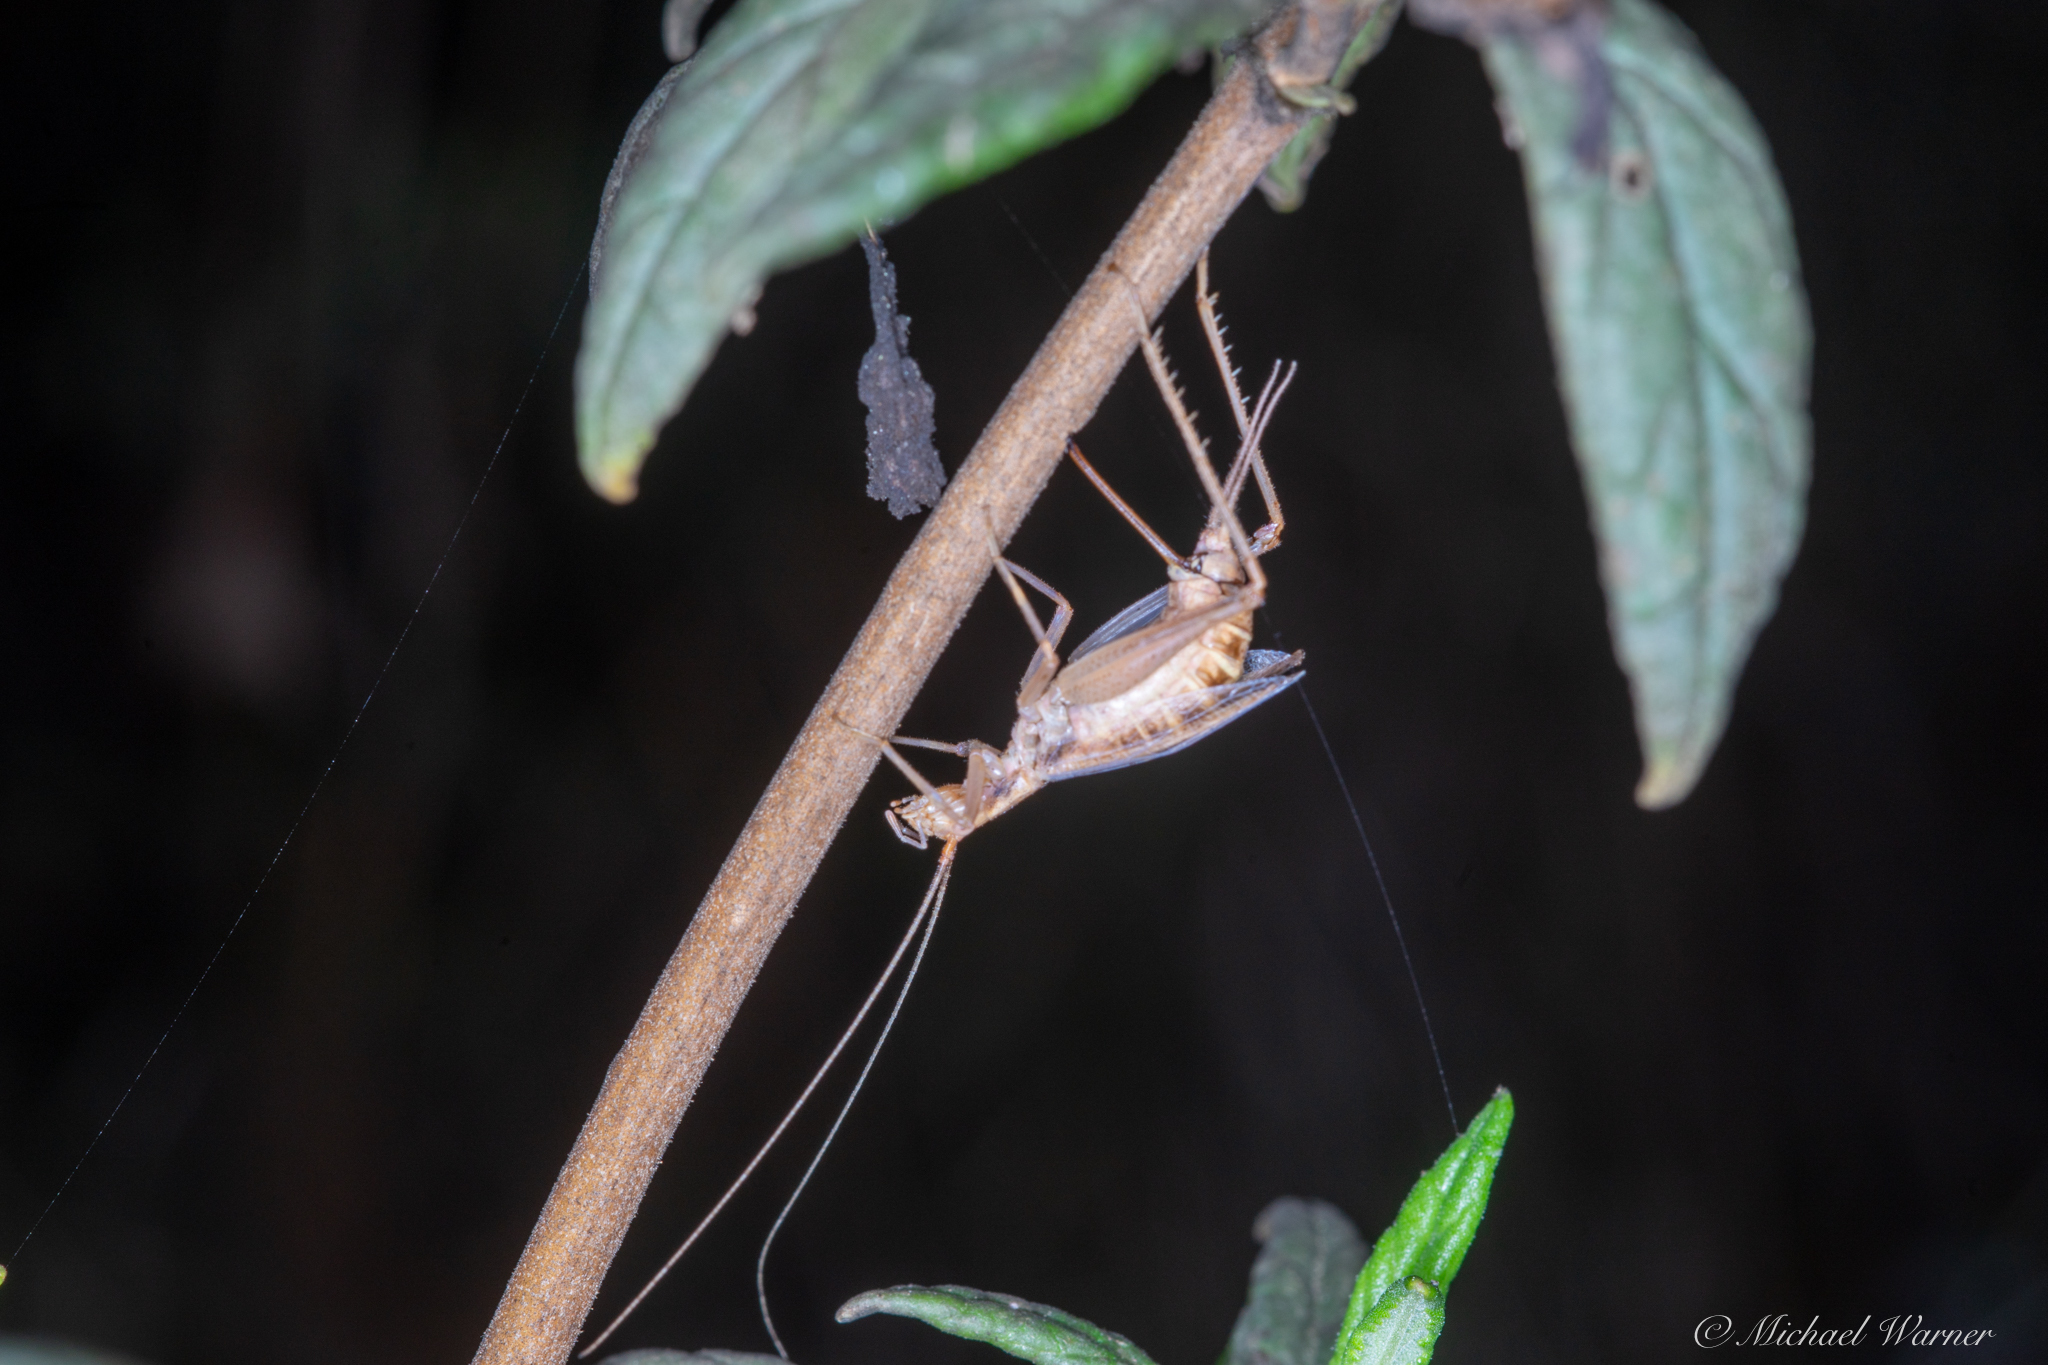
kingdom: Animalia
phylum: Arthropoda
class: Insecta
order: Orthoptera
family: Gryllidae
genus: Oecanthus
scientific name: Oecanthus californicus
